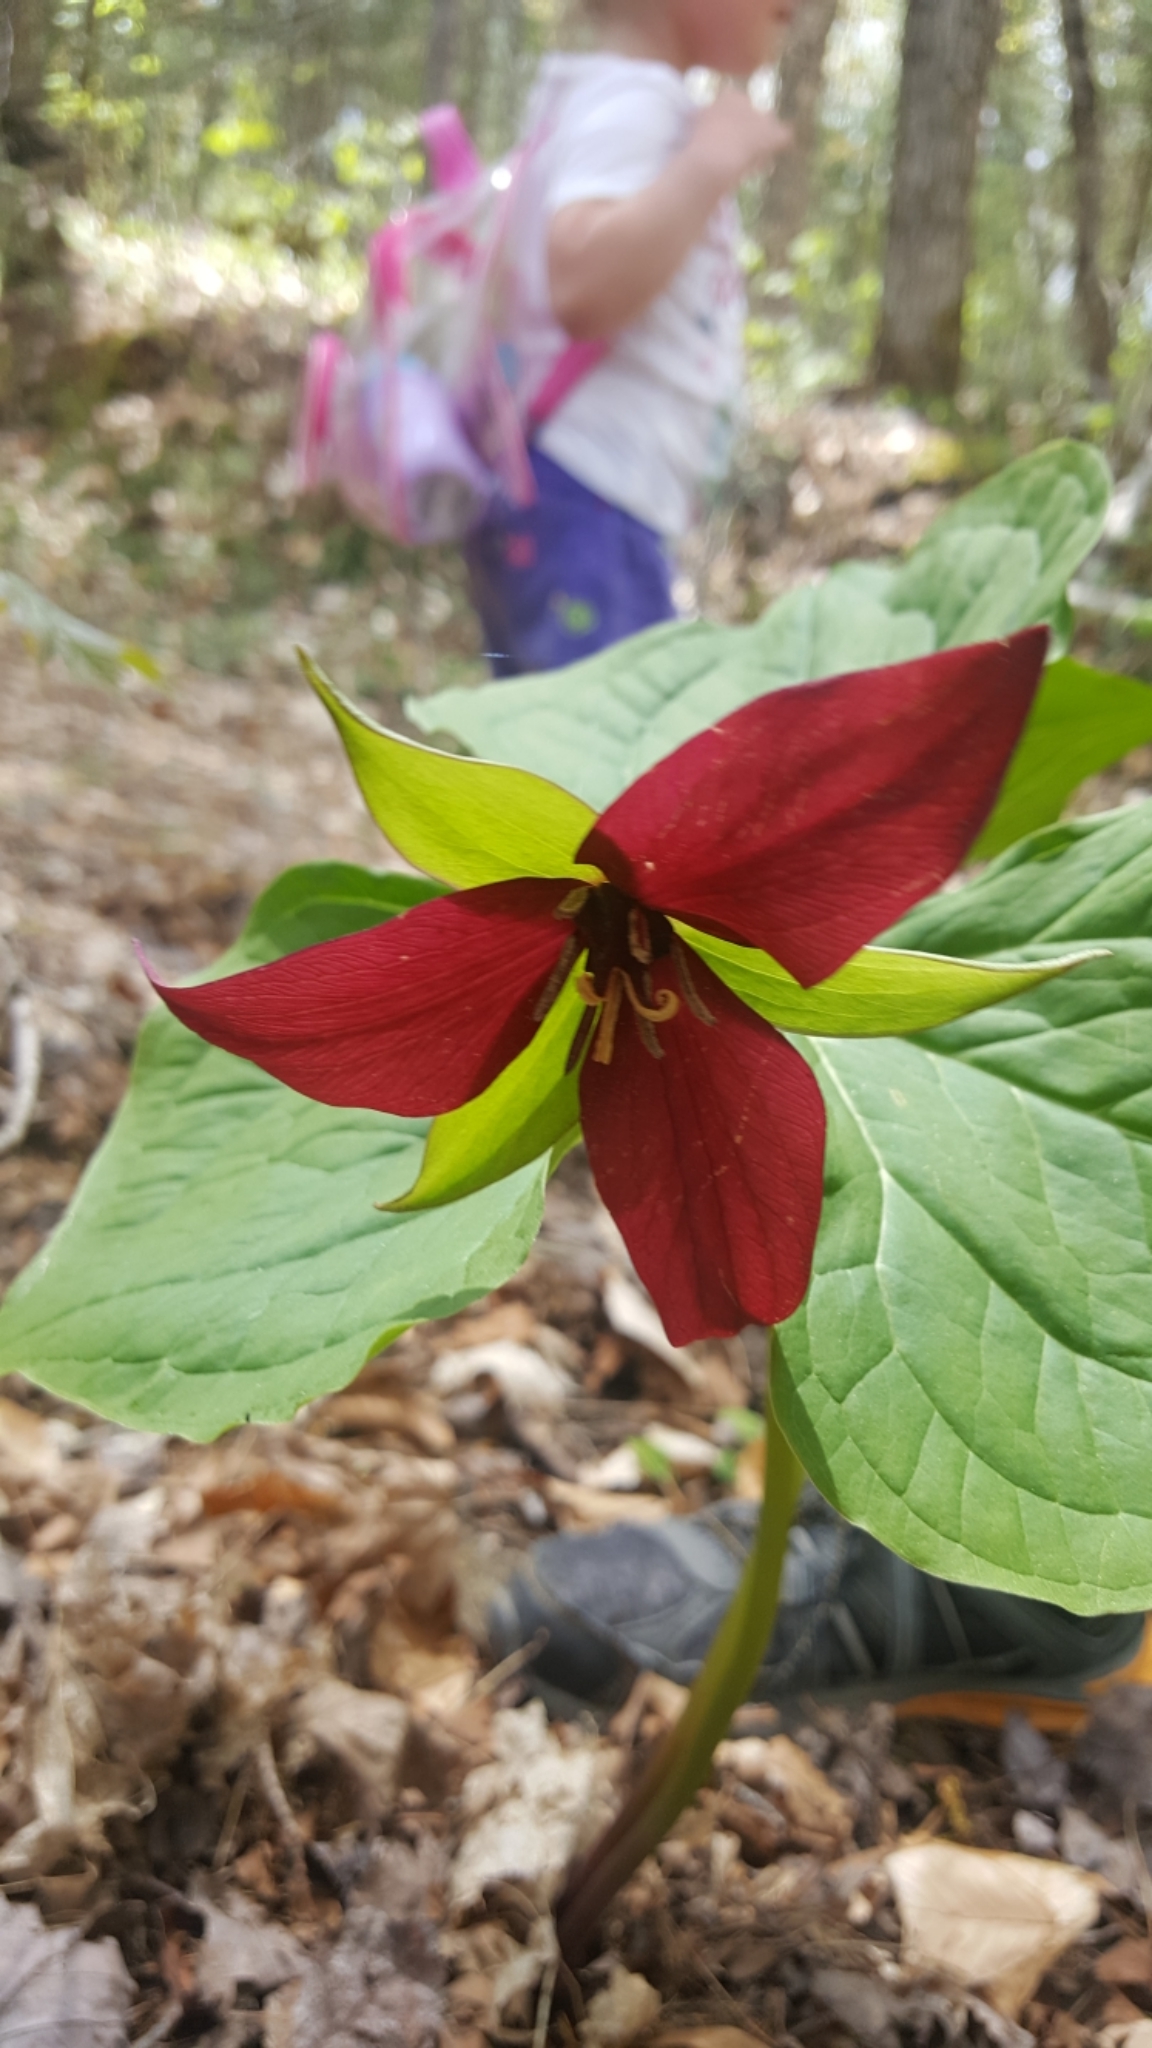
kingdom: Plantae
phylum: Tracheophyta
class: Liliopsida
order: Liliales
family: Melanthiaceae
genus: Trillium
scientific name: Trillium erectum
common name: Purple trillium
